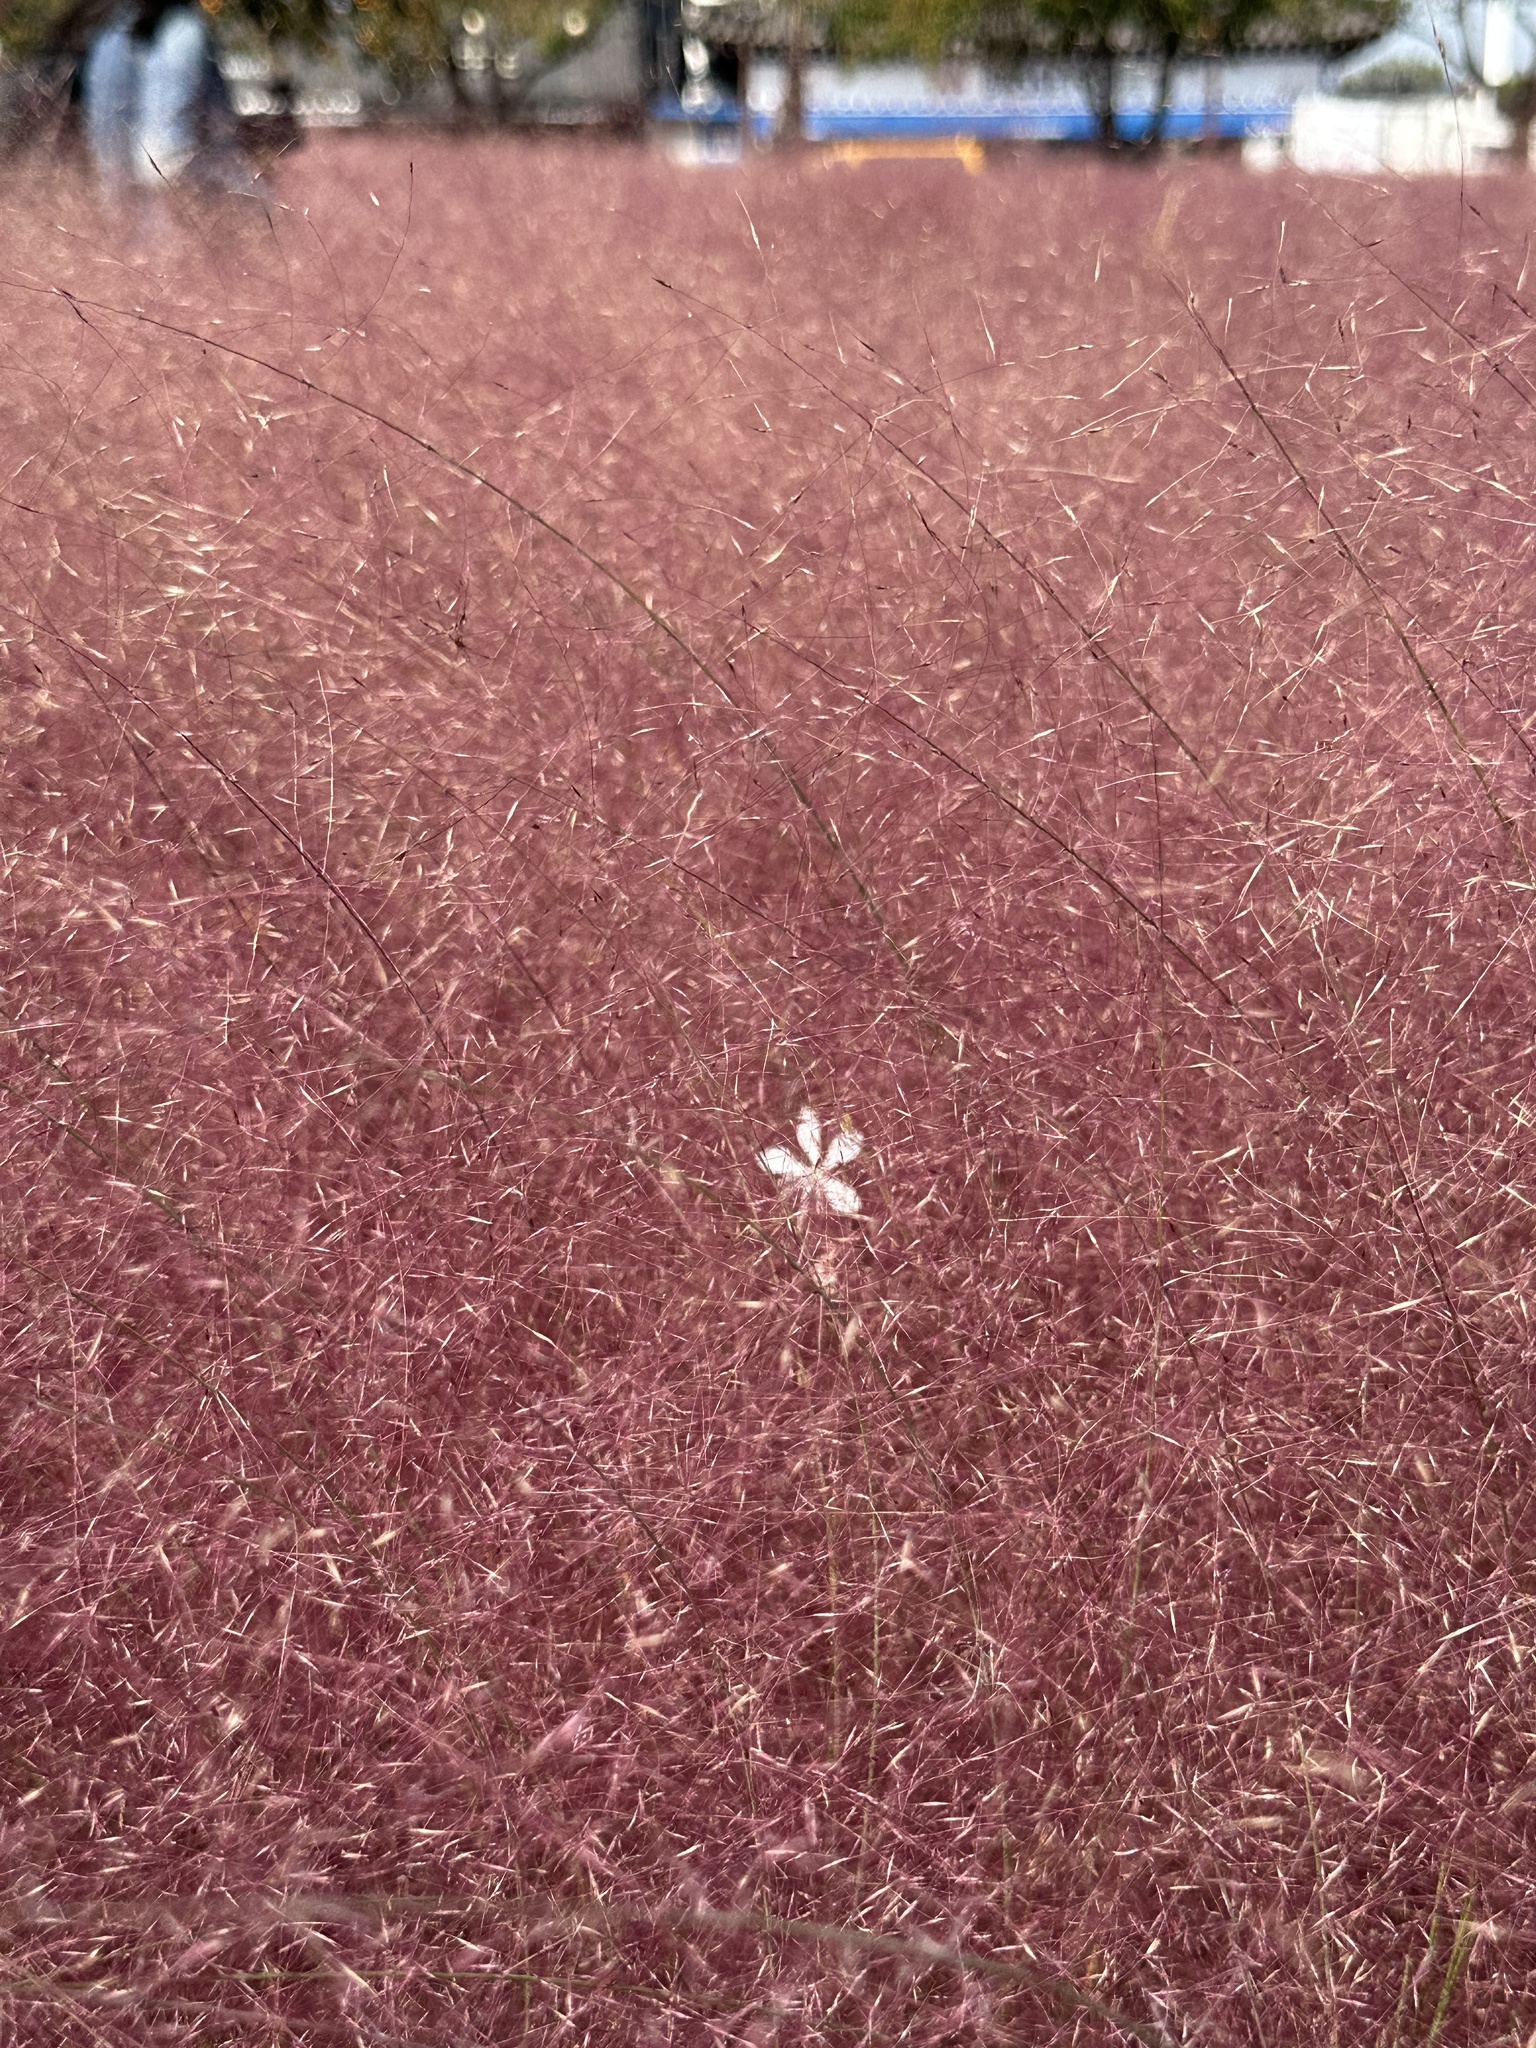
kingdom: Plantae
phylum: Tracheophyta
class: Liliopsida
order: Poales
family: Poaceae
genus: Muhlenbergia
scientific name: Muhlenbergia capillaris
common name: Purple grass
